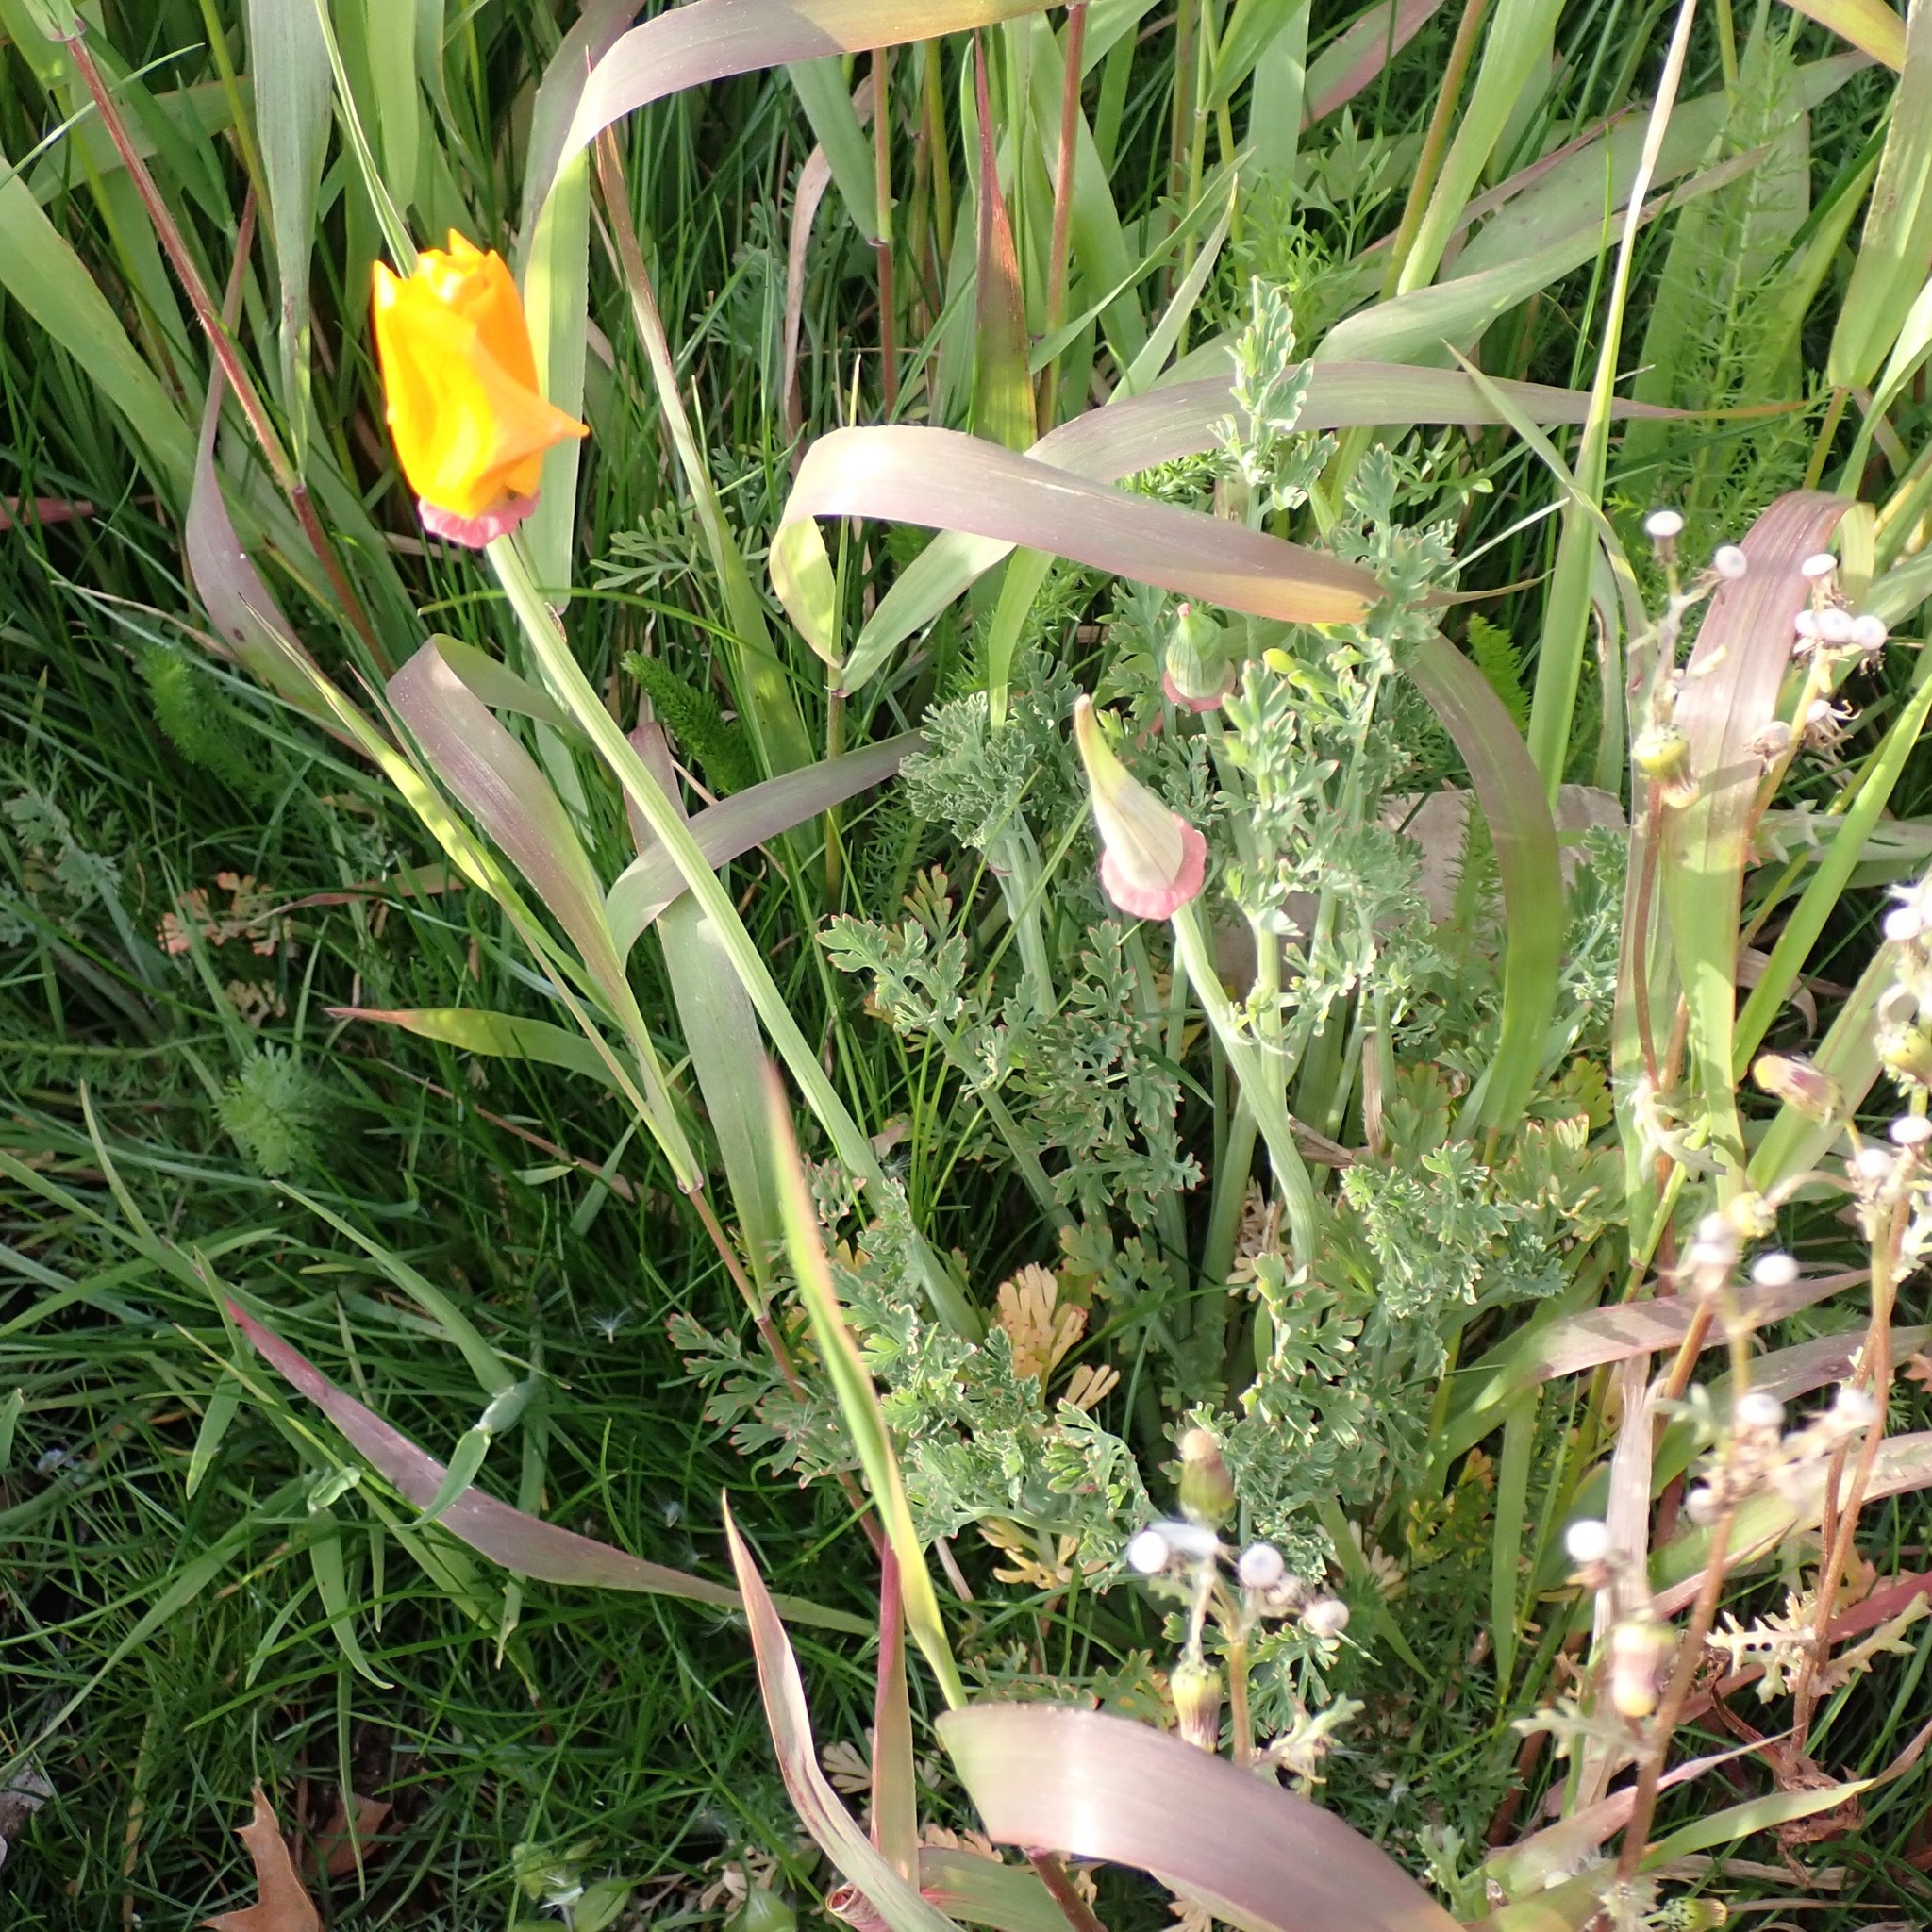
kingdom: Plantae
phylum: Tracheophyta
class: Magnoliopsida
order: Ranunculales
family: Papaveraceae
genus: Eschscholzia
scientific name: Eschscholzia californica
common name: California poppy
